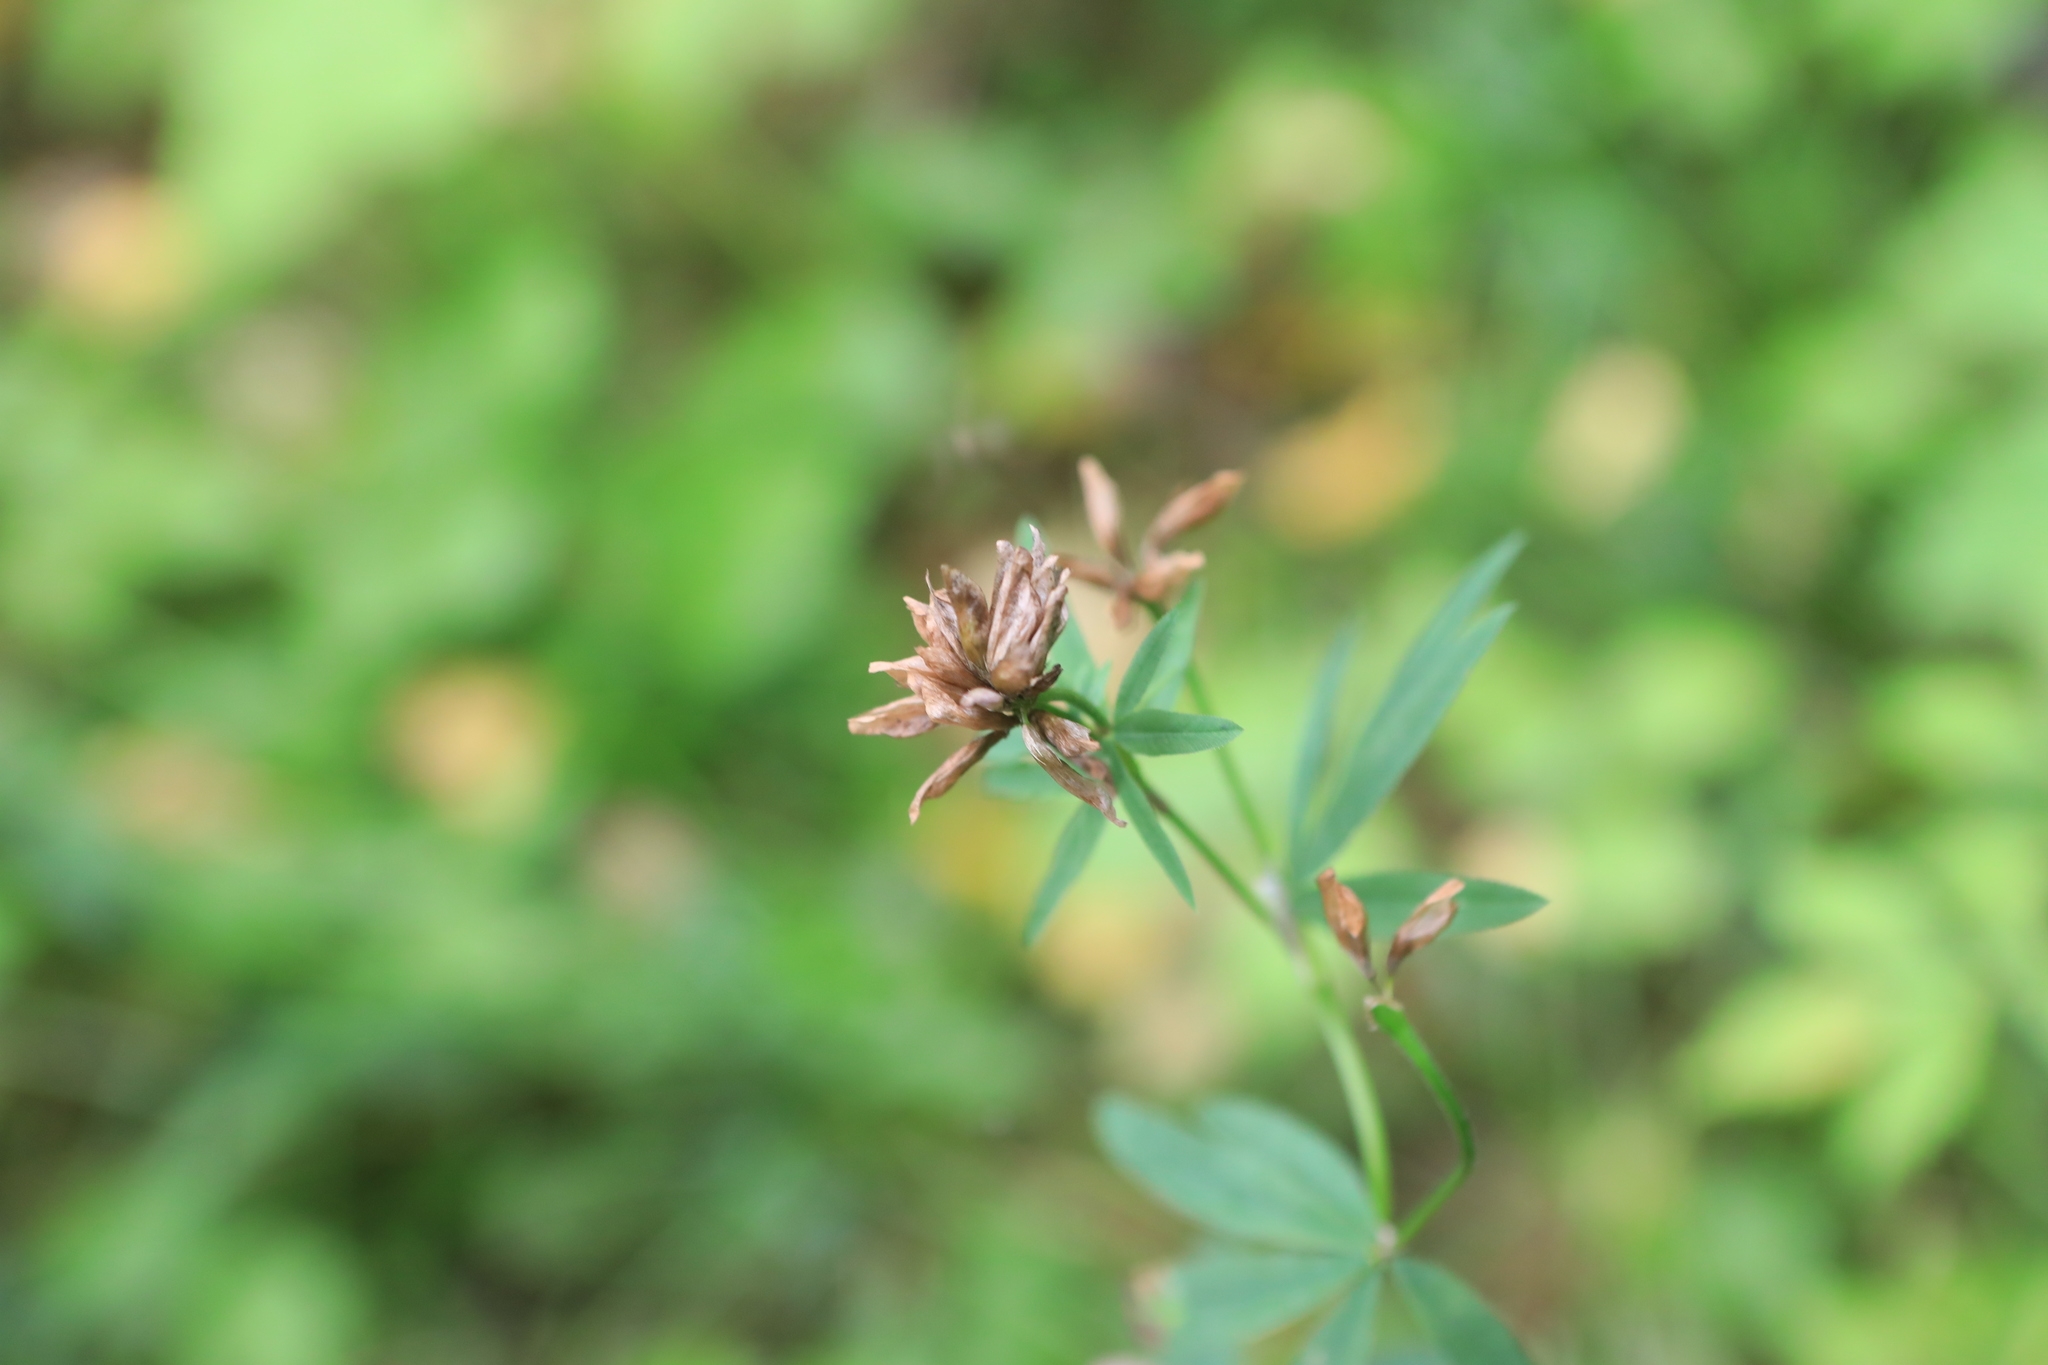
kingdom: Plantae
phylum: Tracheophyta
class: Magnoliopsida
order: Fabales
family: Fabaceae
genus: Trifolium
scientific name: Trifolium lupinaster
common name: Lupine clover
